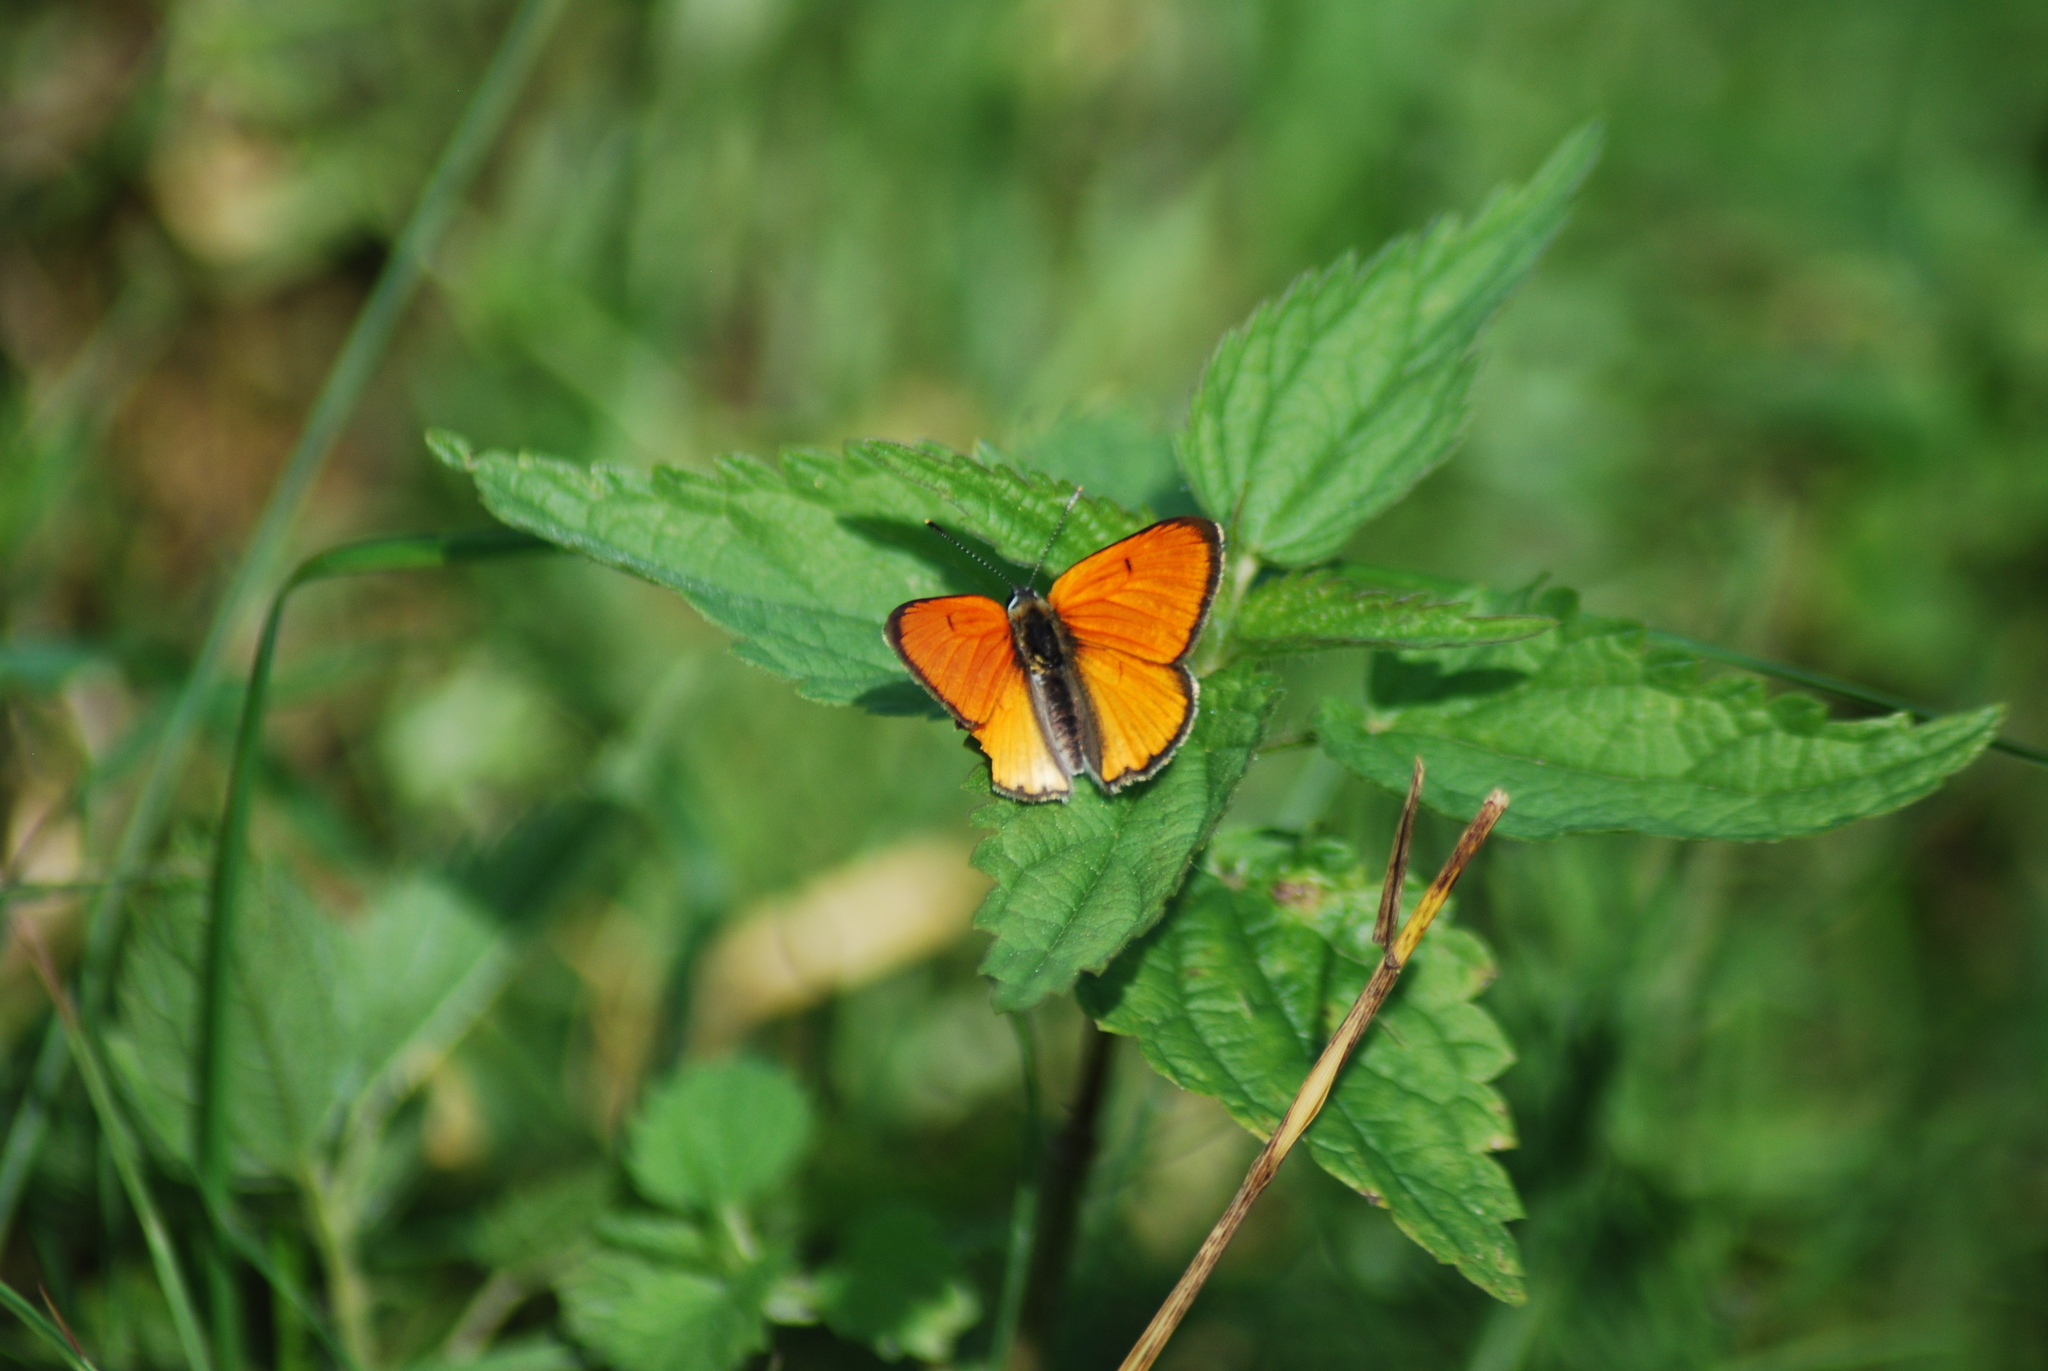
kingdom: Animalia
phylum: Arthropoda
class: Insecta
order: Lepidoptera
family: Lycaenidae
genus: Lycaena
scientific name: Lycaena dispar
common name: Large copper
